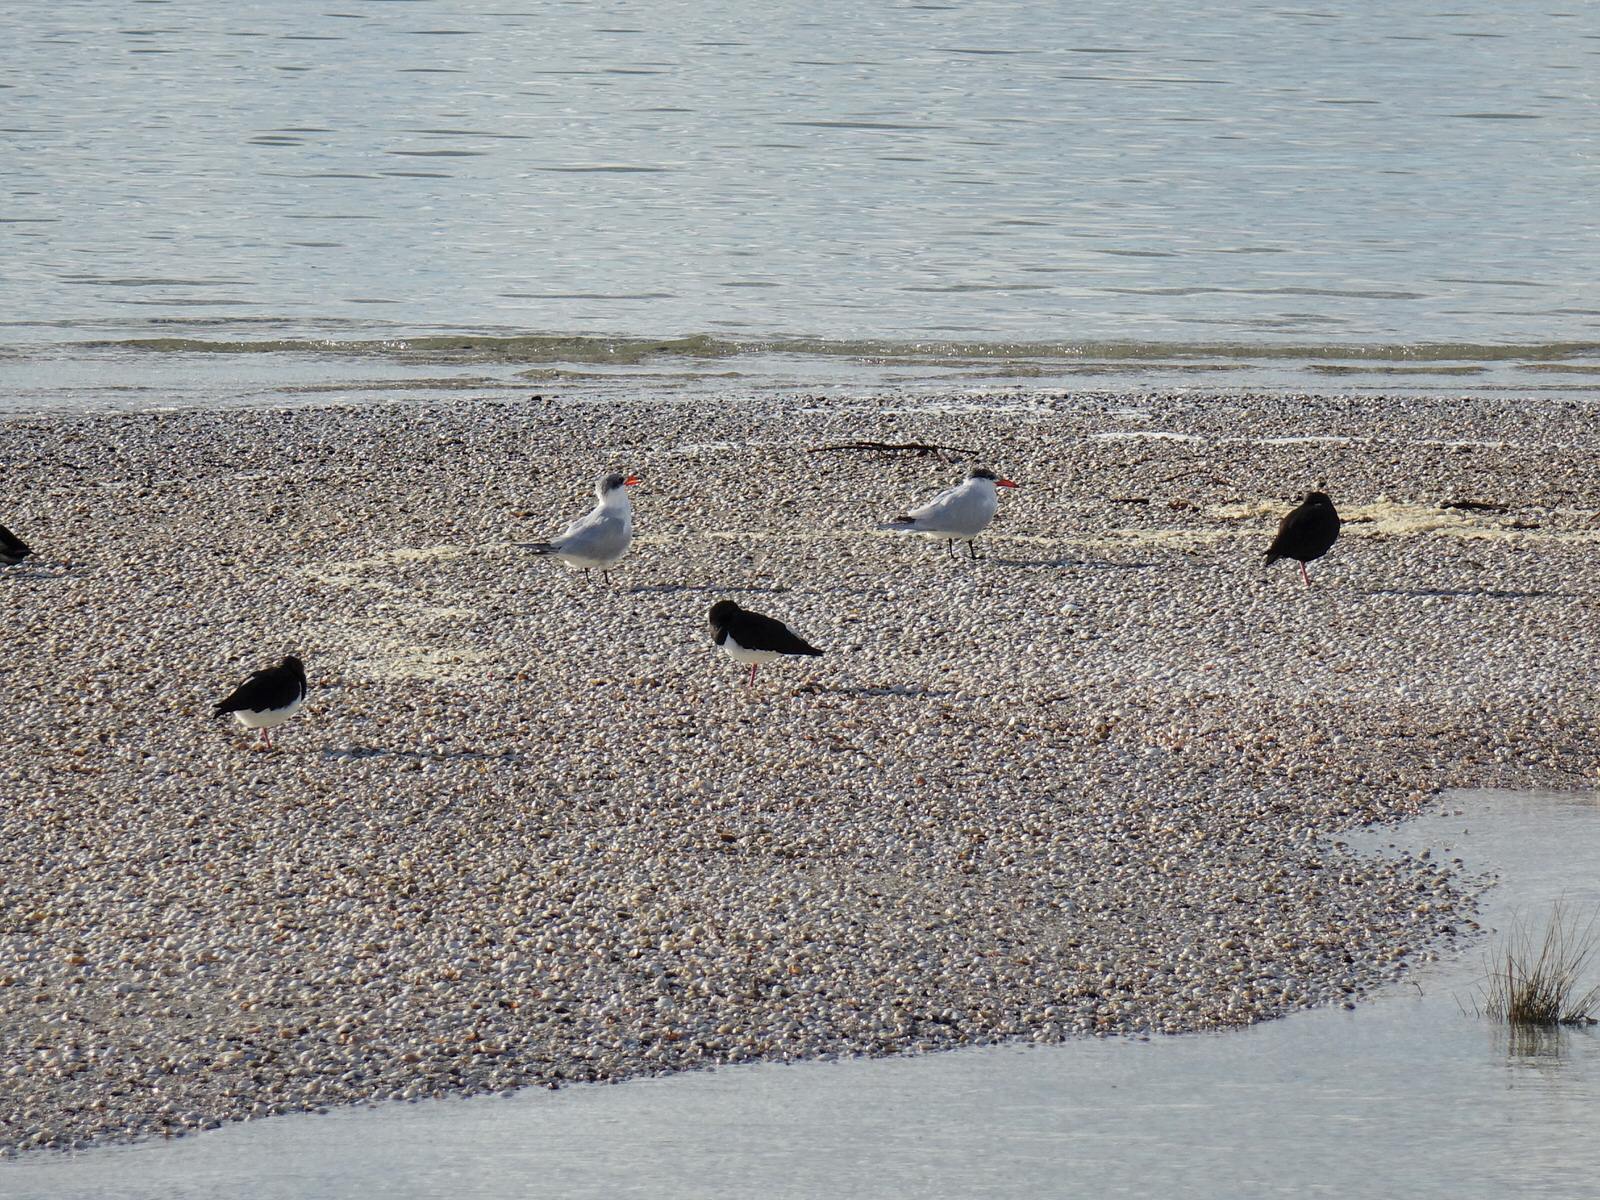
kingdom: Animalia
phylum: Chordata
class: Aves
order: Charadriiformes
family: Laridae
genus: Hydroprogne
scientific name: Hydroprogne caspia
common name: Caspian tern
